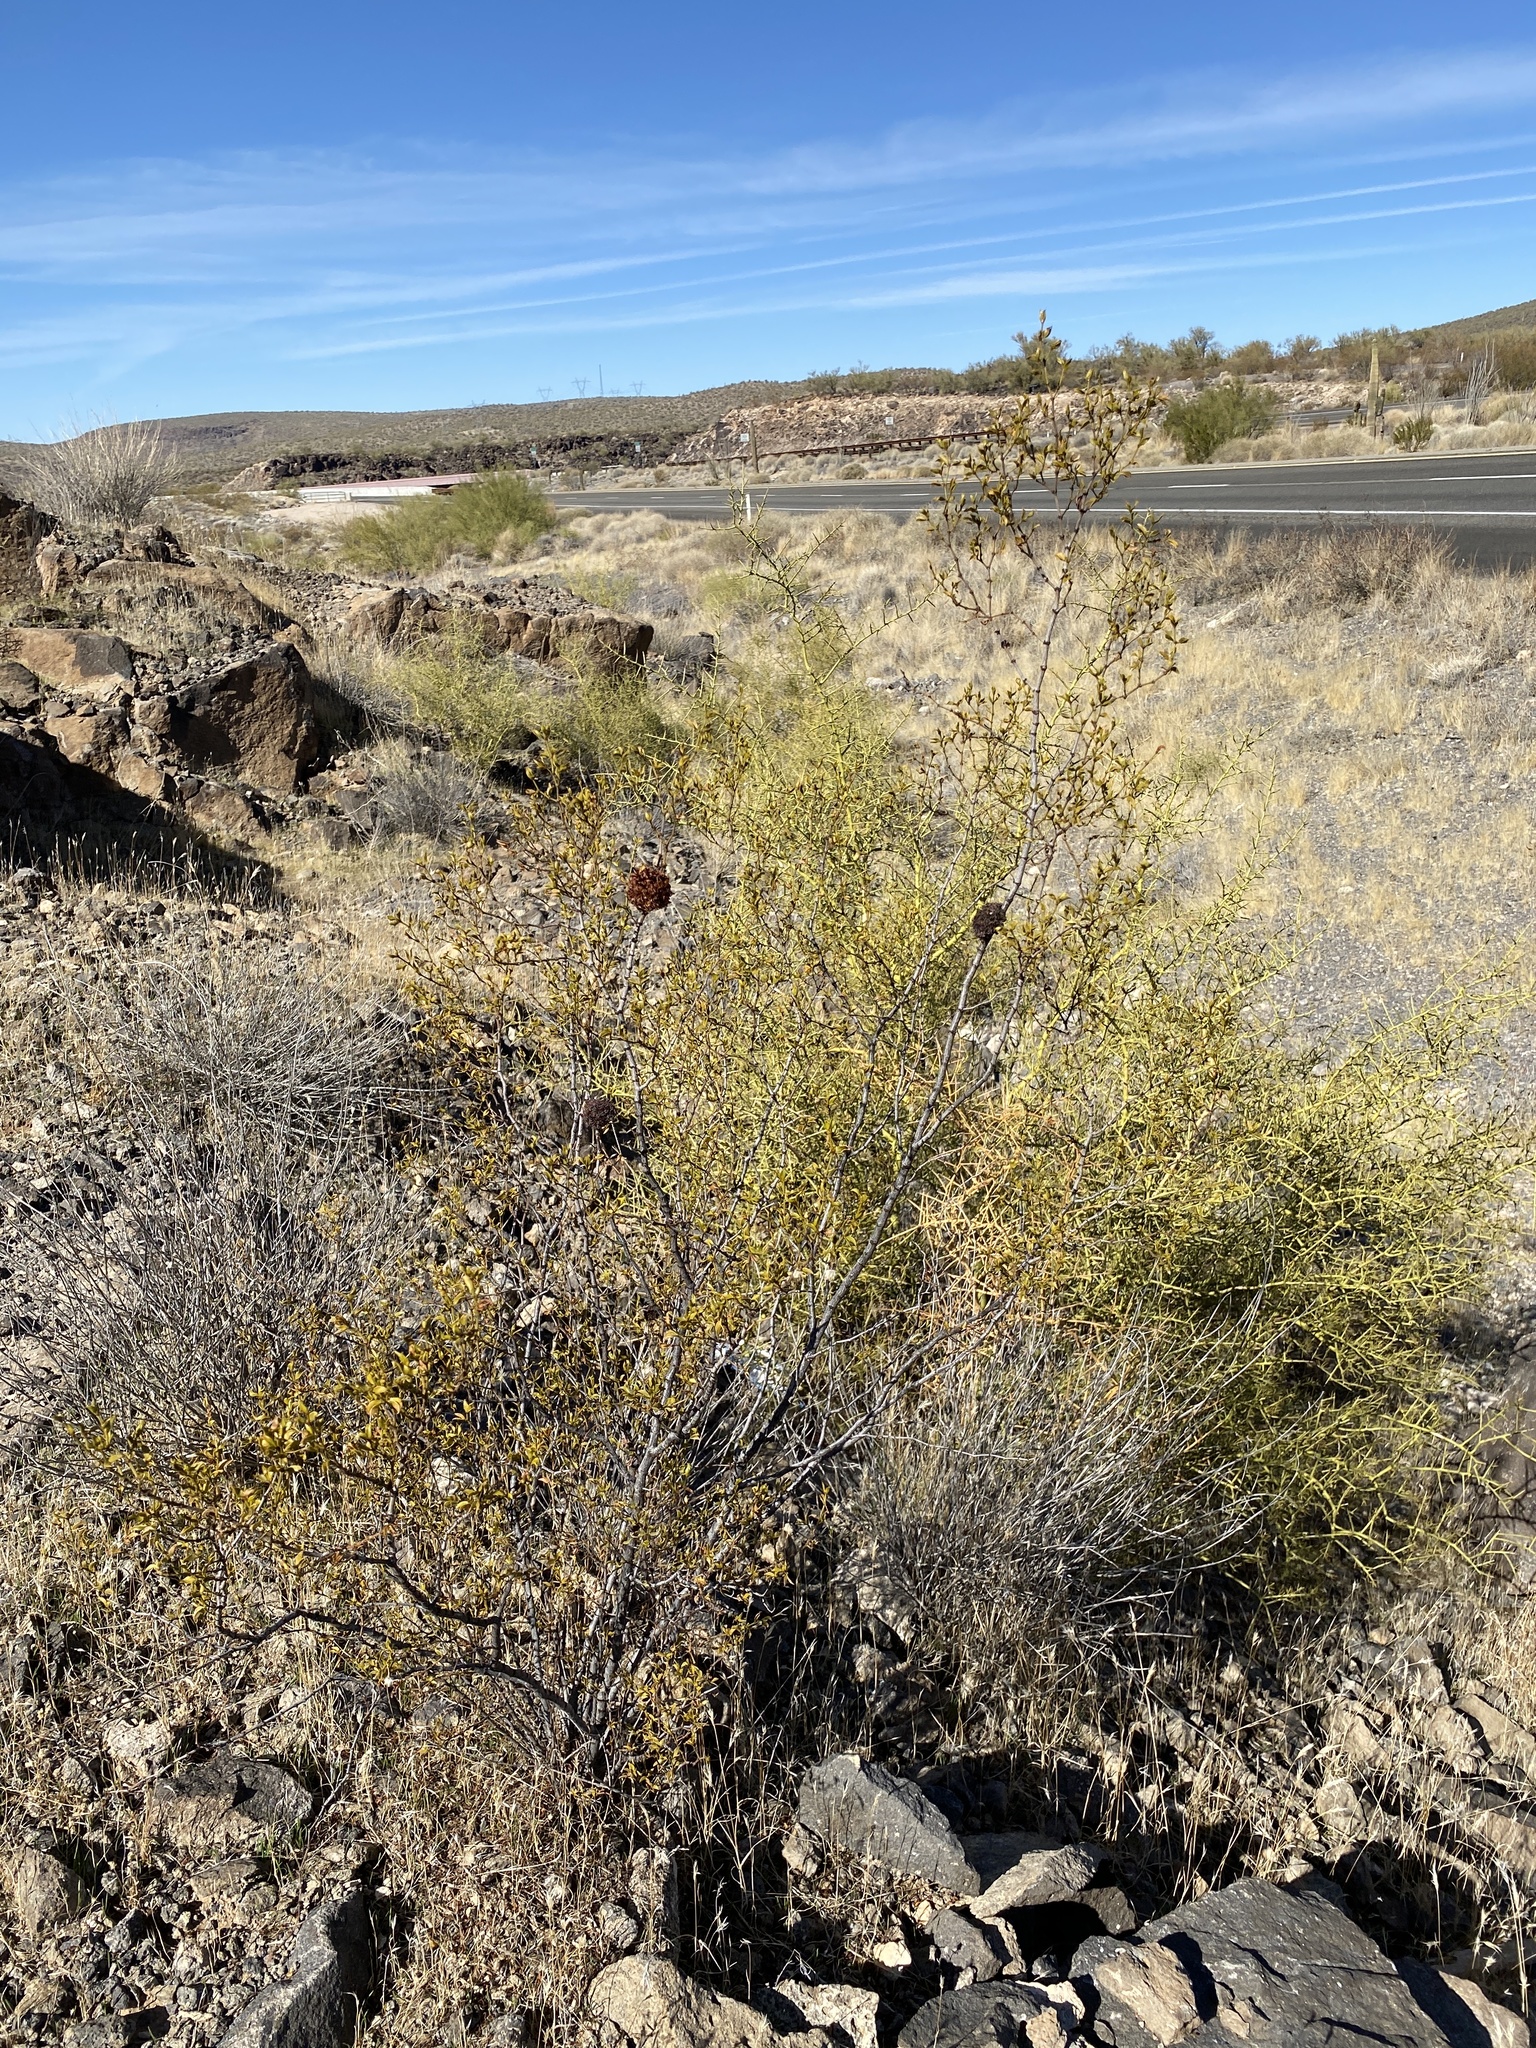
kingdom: Plantae
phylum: Tracheophyta
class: Magnoliopsida
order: Zygophyllales
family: Zygophyllaceae
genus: Larrea
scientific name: Larrea tridentata
